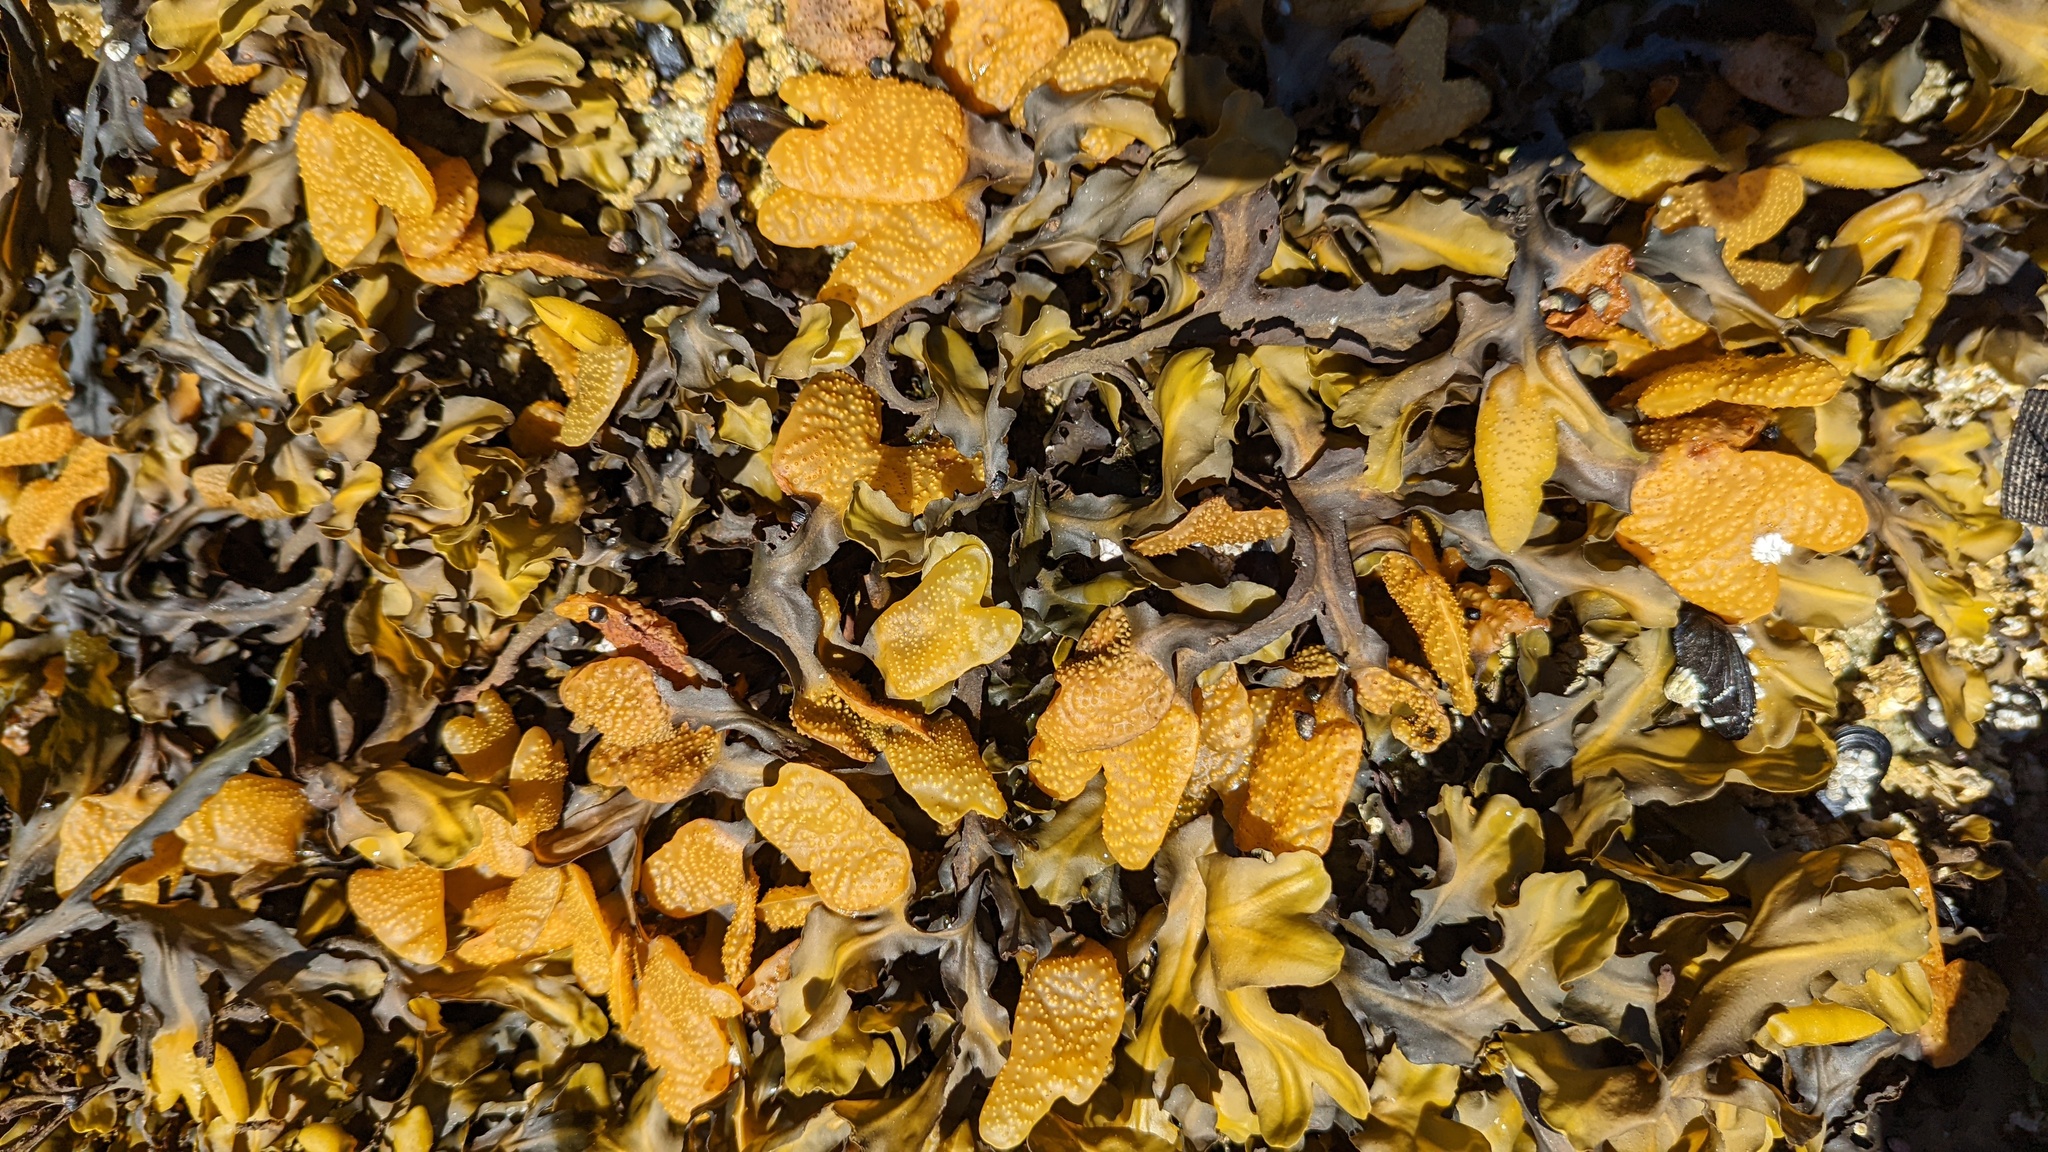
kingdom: Chromista
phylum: Ochrophyta
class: Phaeophyceae
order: Fucales
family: Fucaceae
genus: Fucus
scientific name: Fucus distichus
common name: Rockweed
